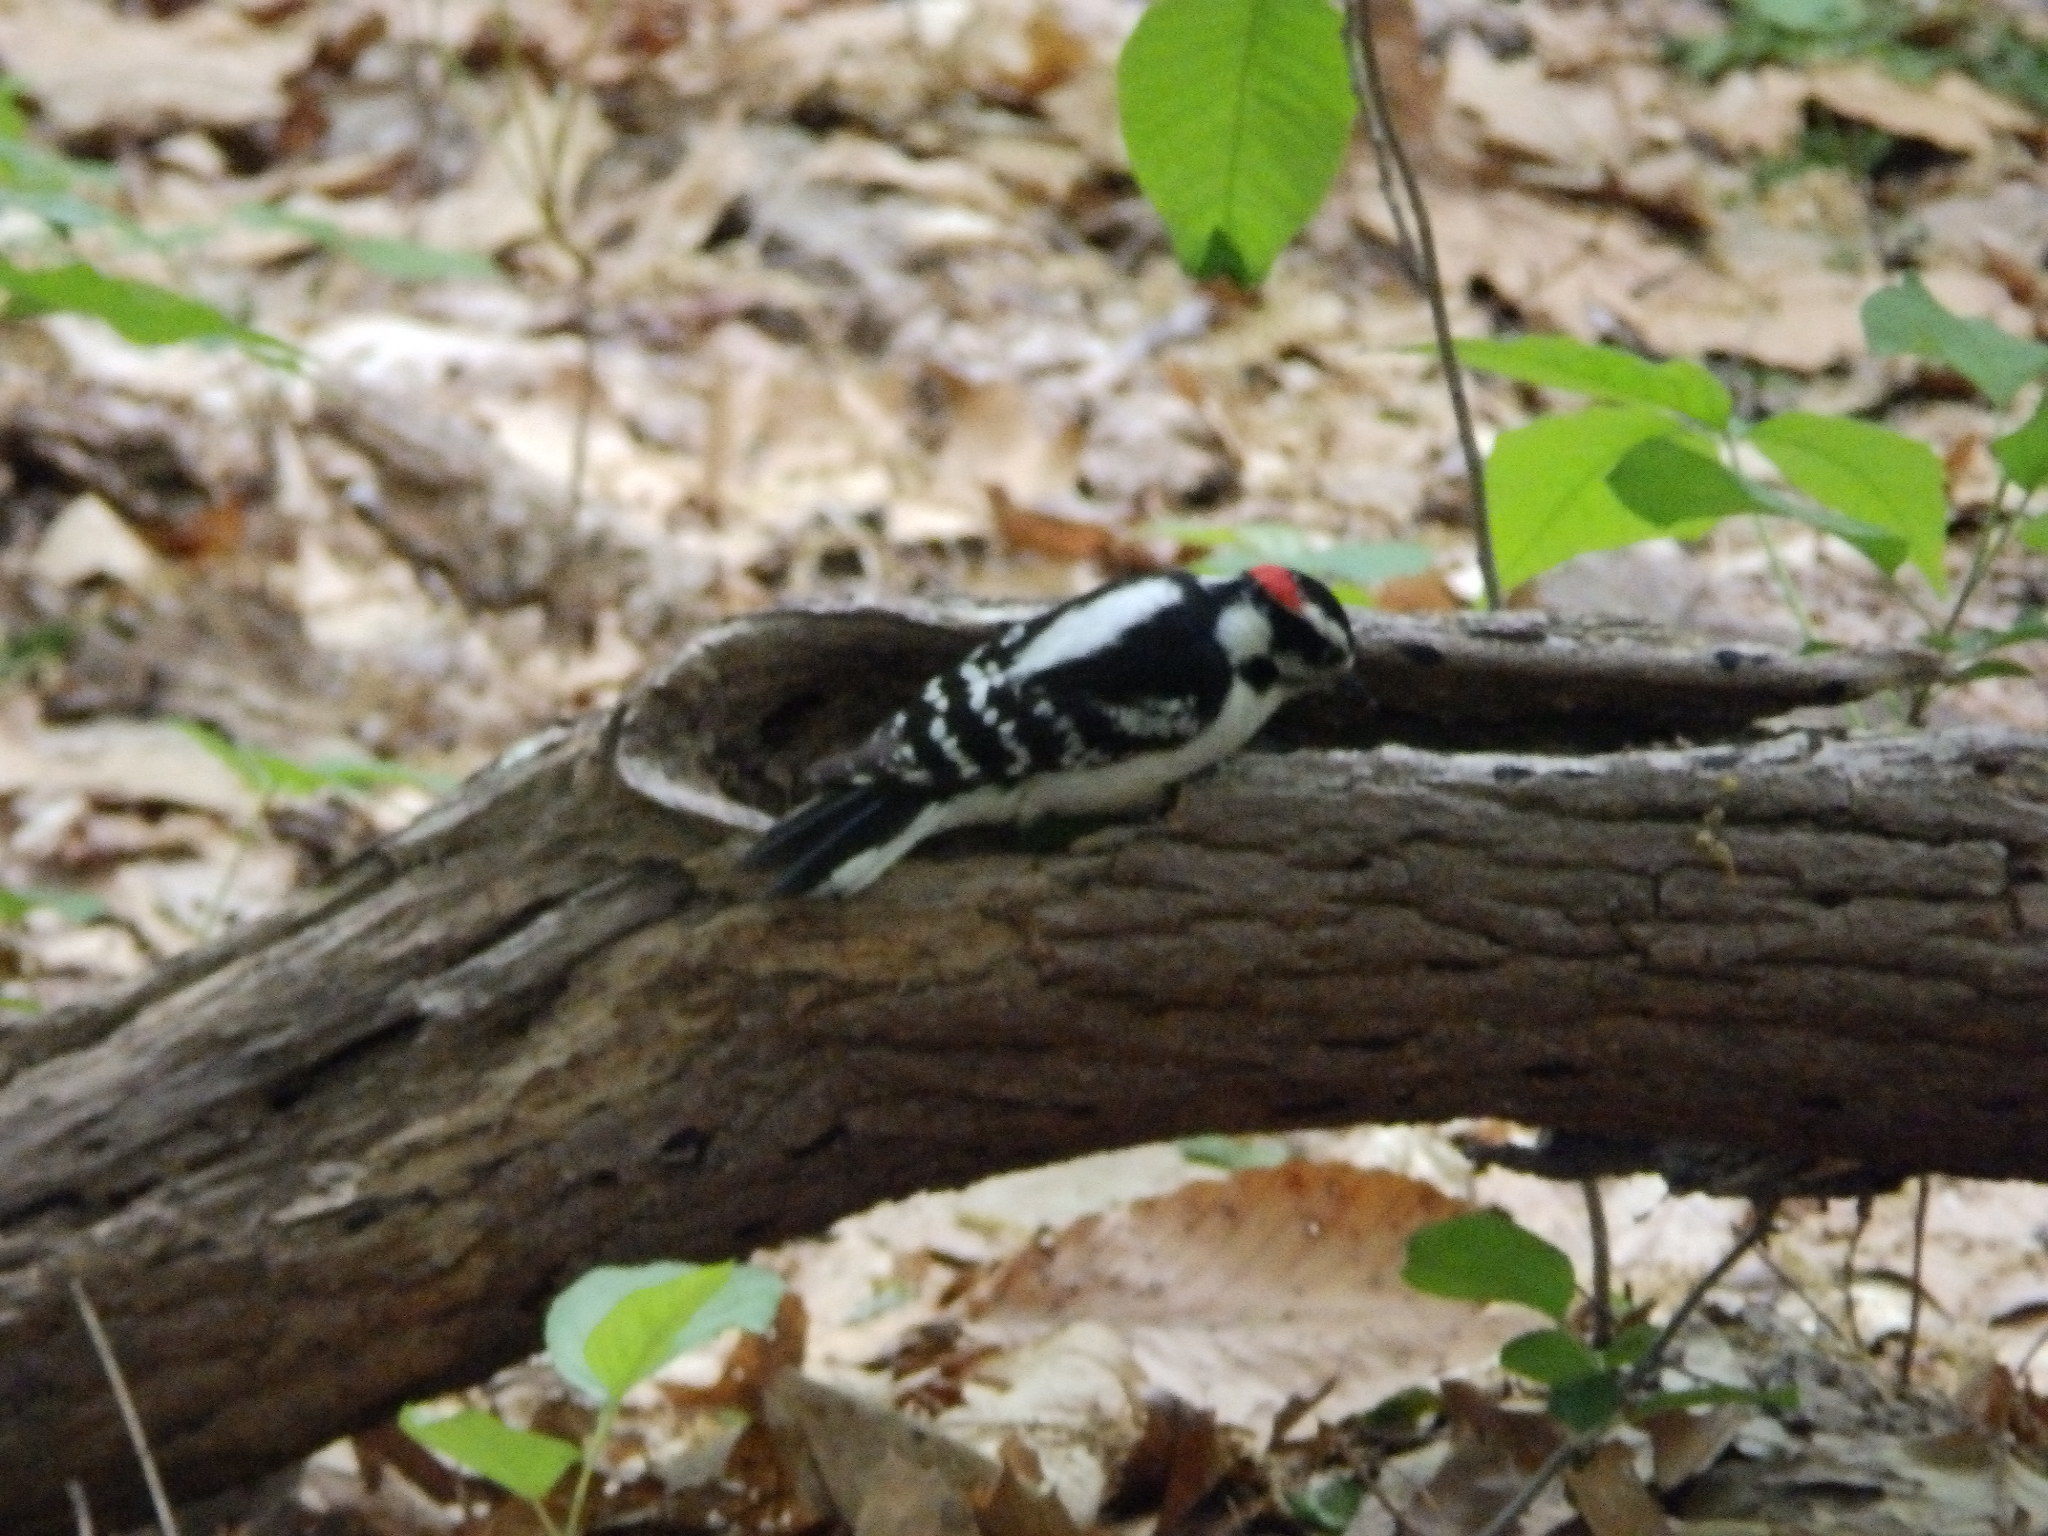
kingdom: Animalia
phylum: Chordata
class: Aves
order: Piciformes
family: Picidae
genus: Dryobates
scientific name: Dryobates pubescens
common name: Downy woodpecker
